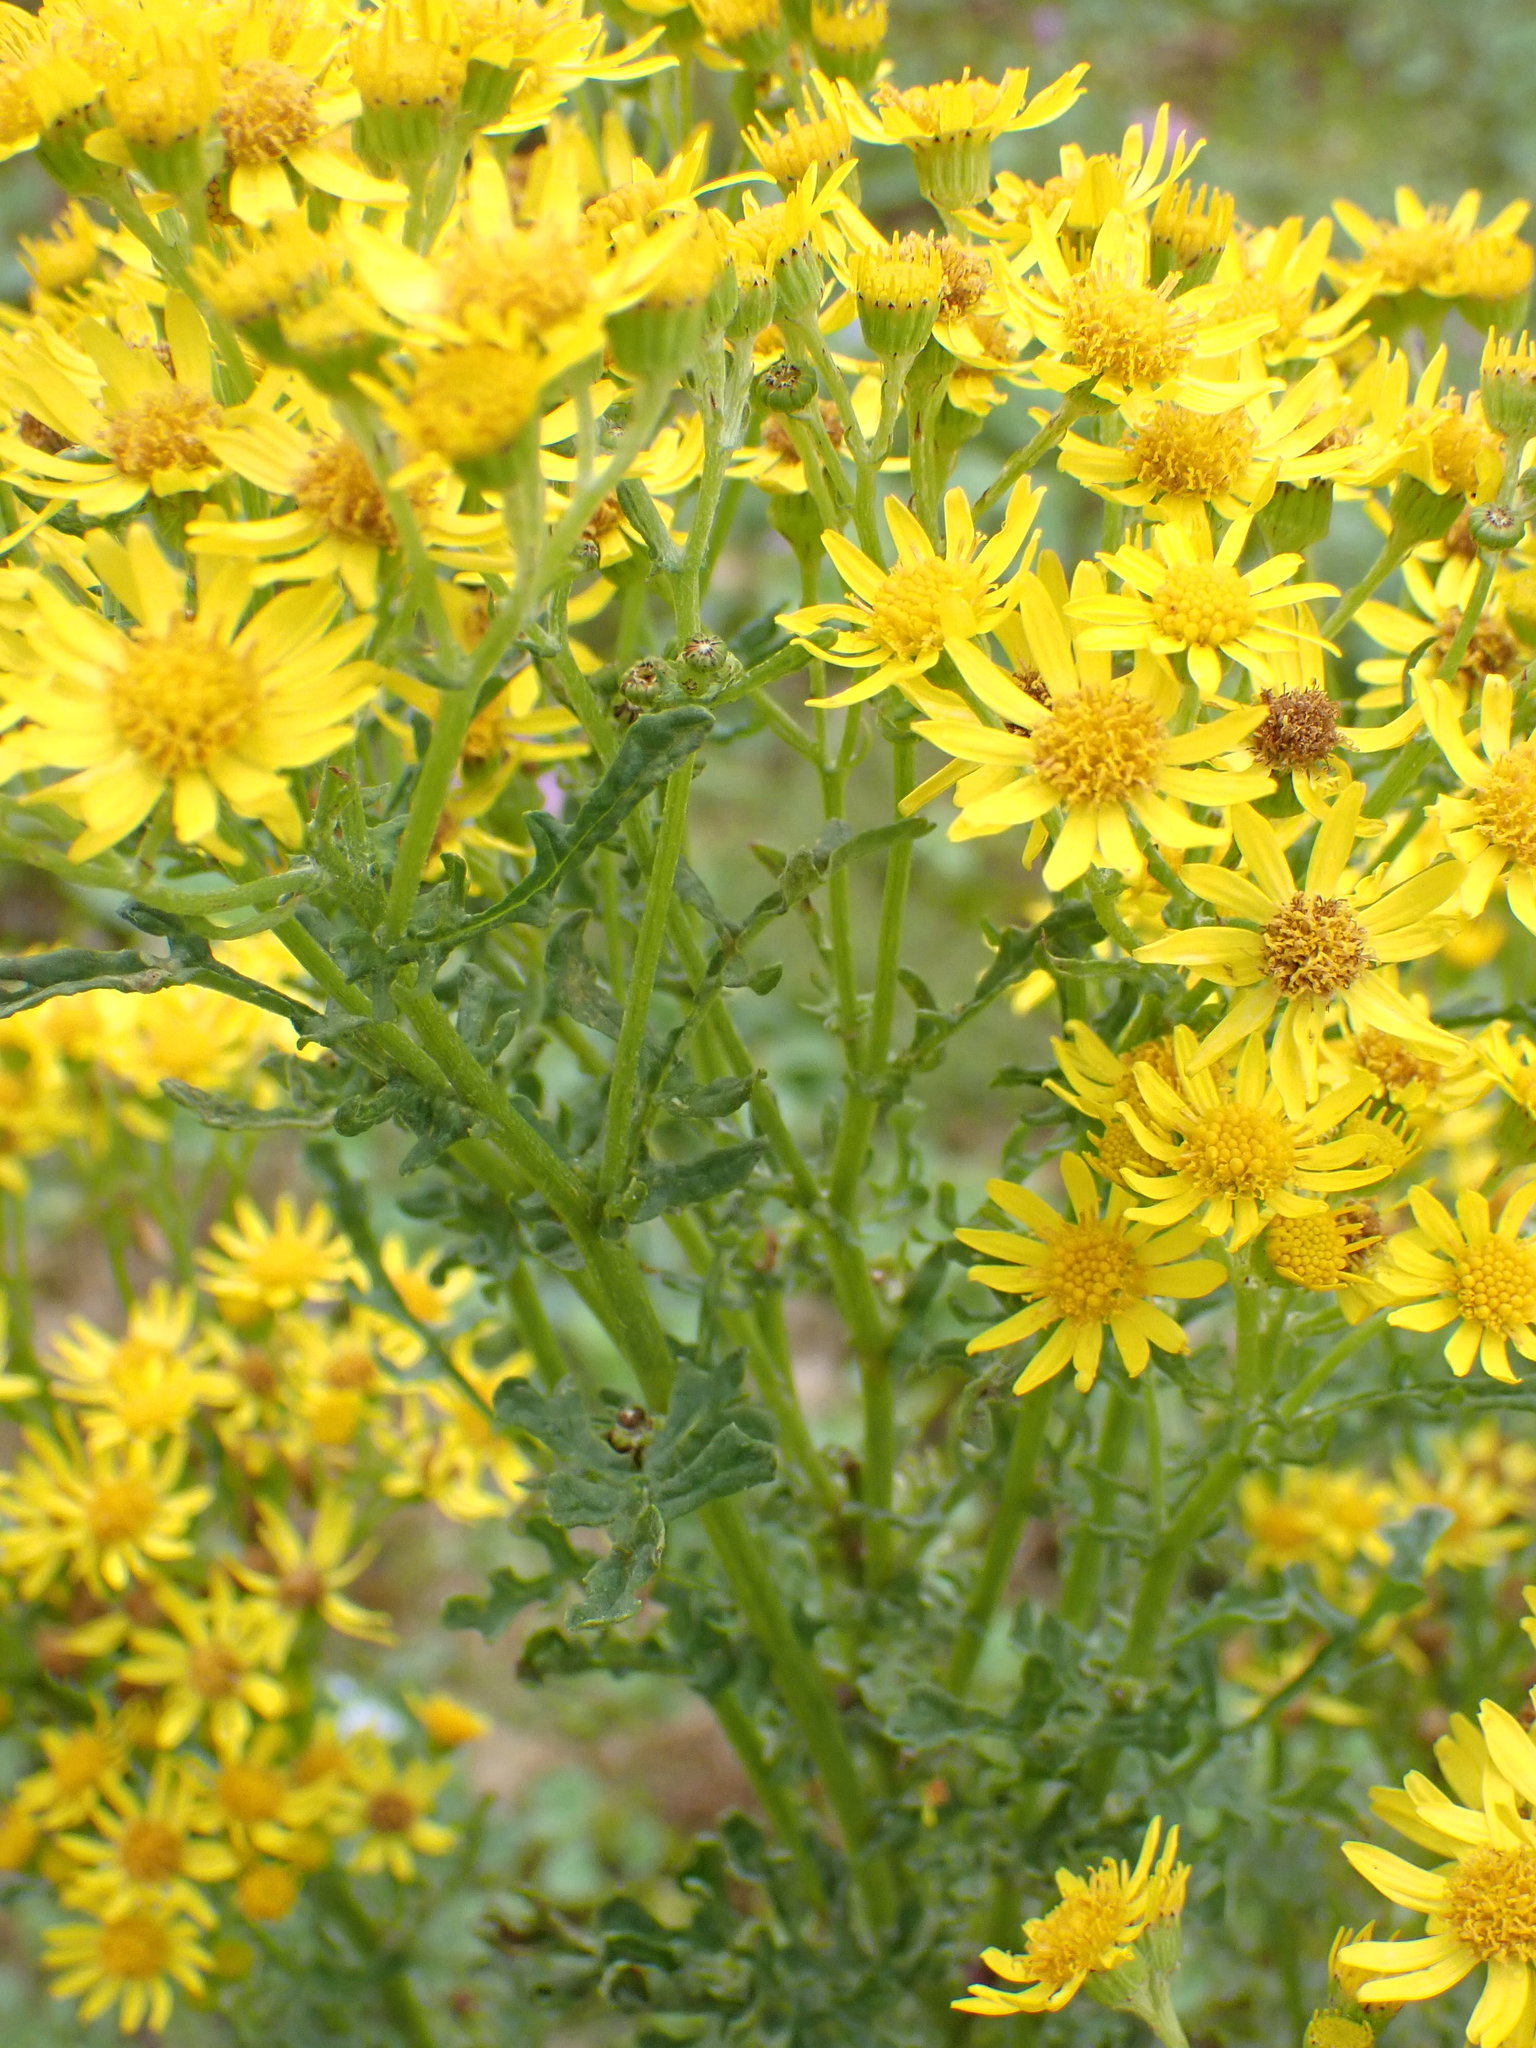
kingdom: Plantae
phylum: Tracheophyta
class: Magnoliopsida
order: Asterales
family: Asteraceae
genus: Jacobaea
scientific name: Jacobaea vulgaris
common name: Stinking willie
